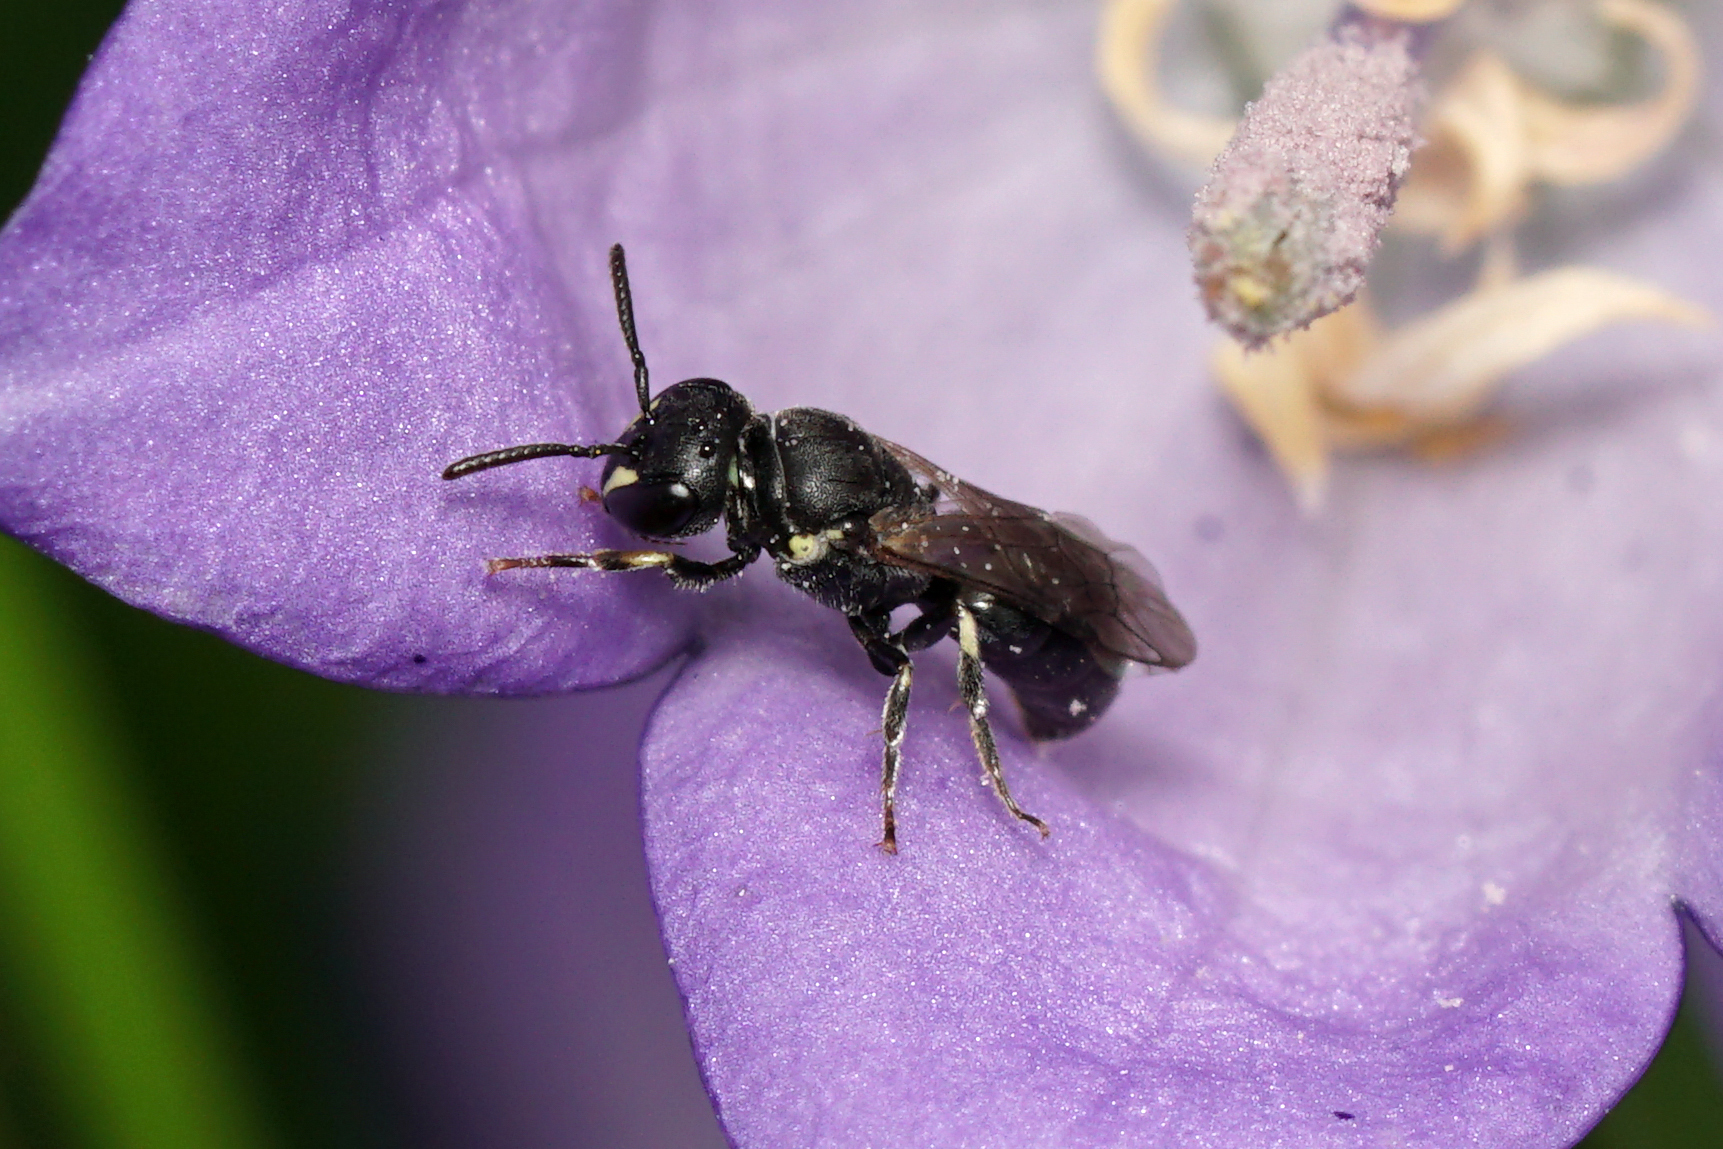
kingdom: Animalia
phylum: Arthropoda
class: Insecta
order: Hymenoptera
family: Colletidae
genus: Hylaeus
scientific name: Hylaeus mesillae
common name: Mesilla masked bee
